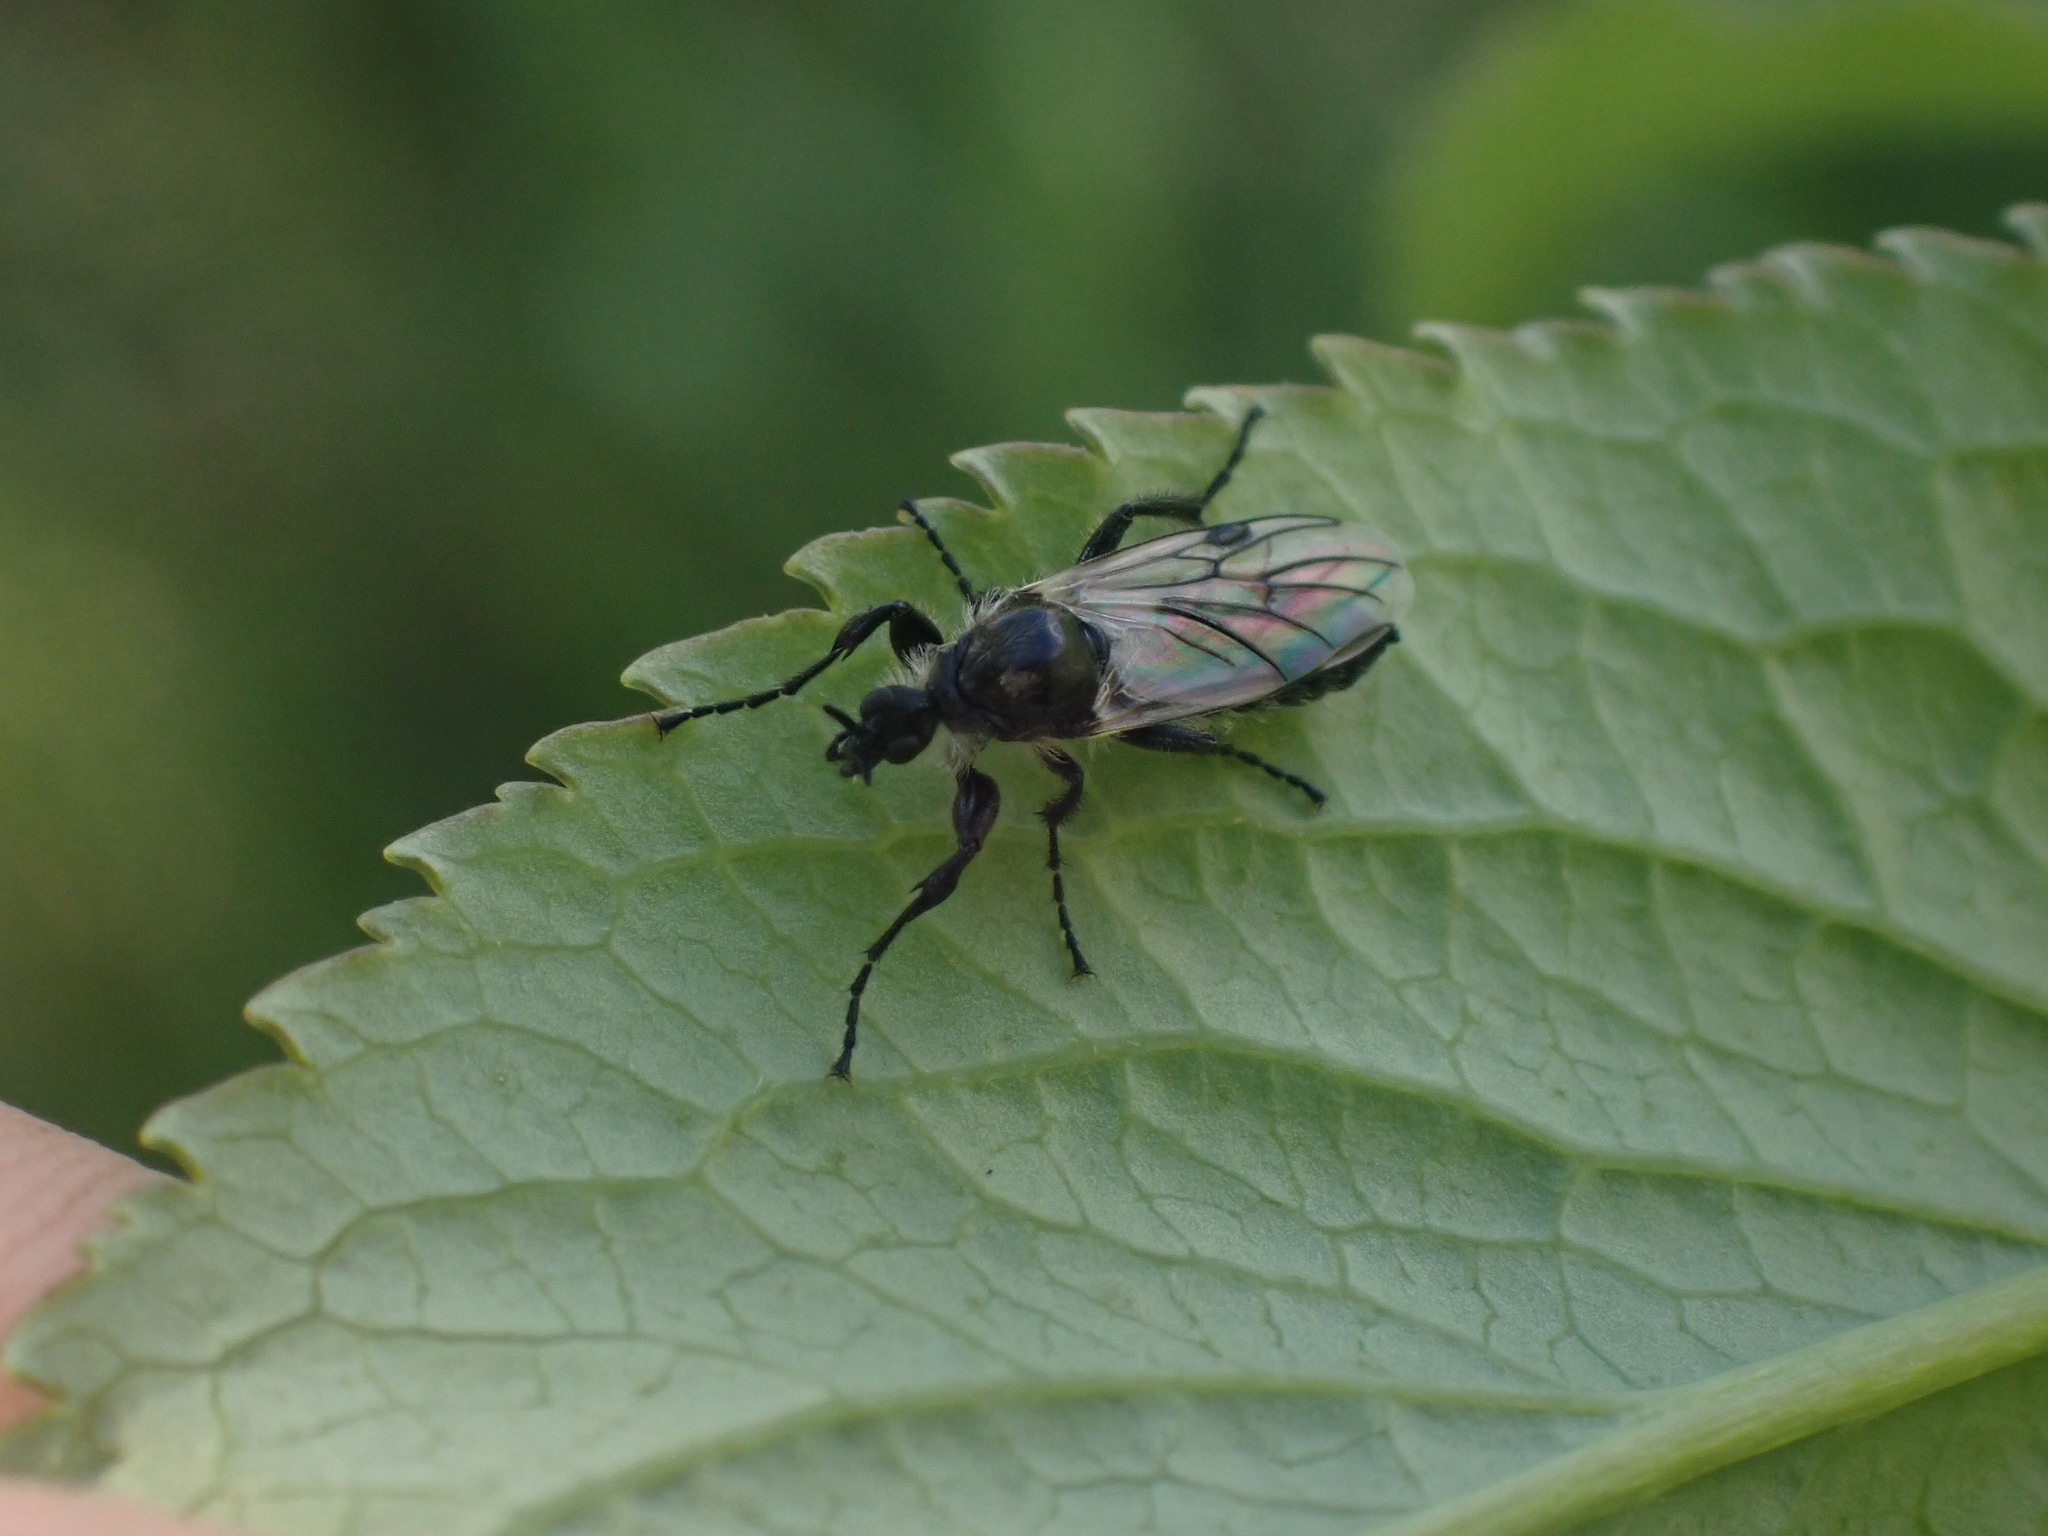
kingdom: Animalia
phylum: Arthropoda
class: Insecta
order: Diptera
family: Bibionidae
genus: Bibio
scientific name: Bibio albipennis
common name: White-winged march fly
